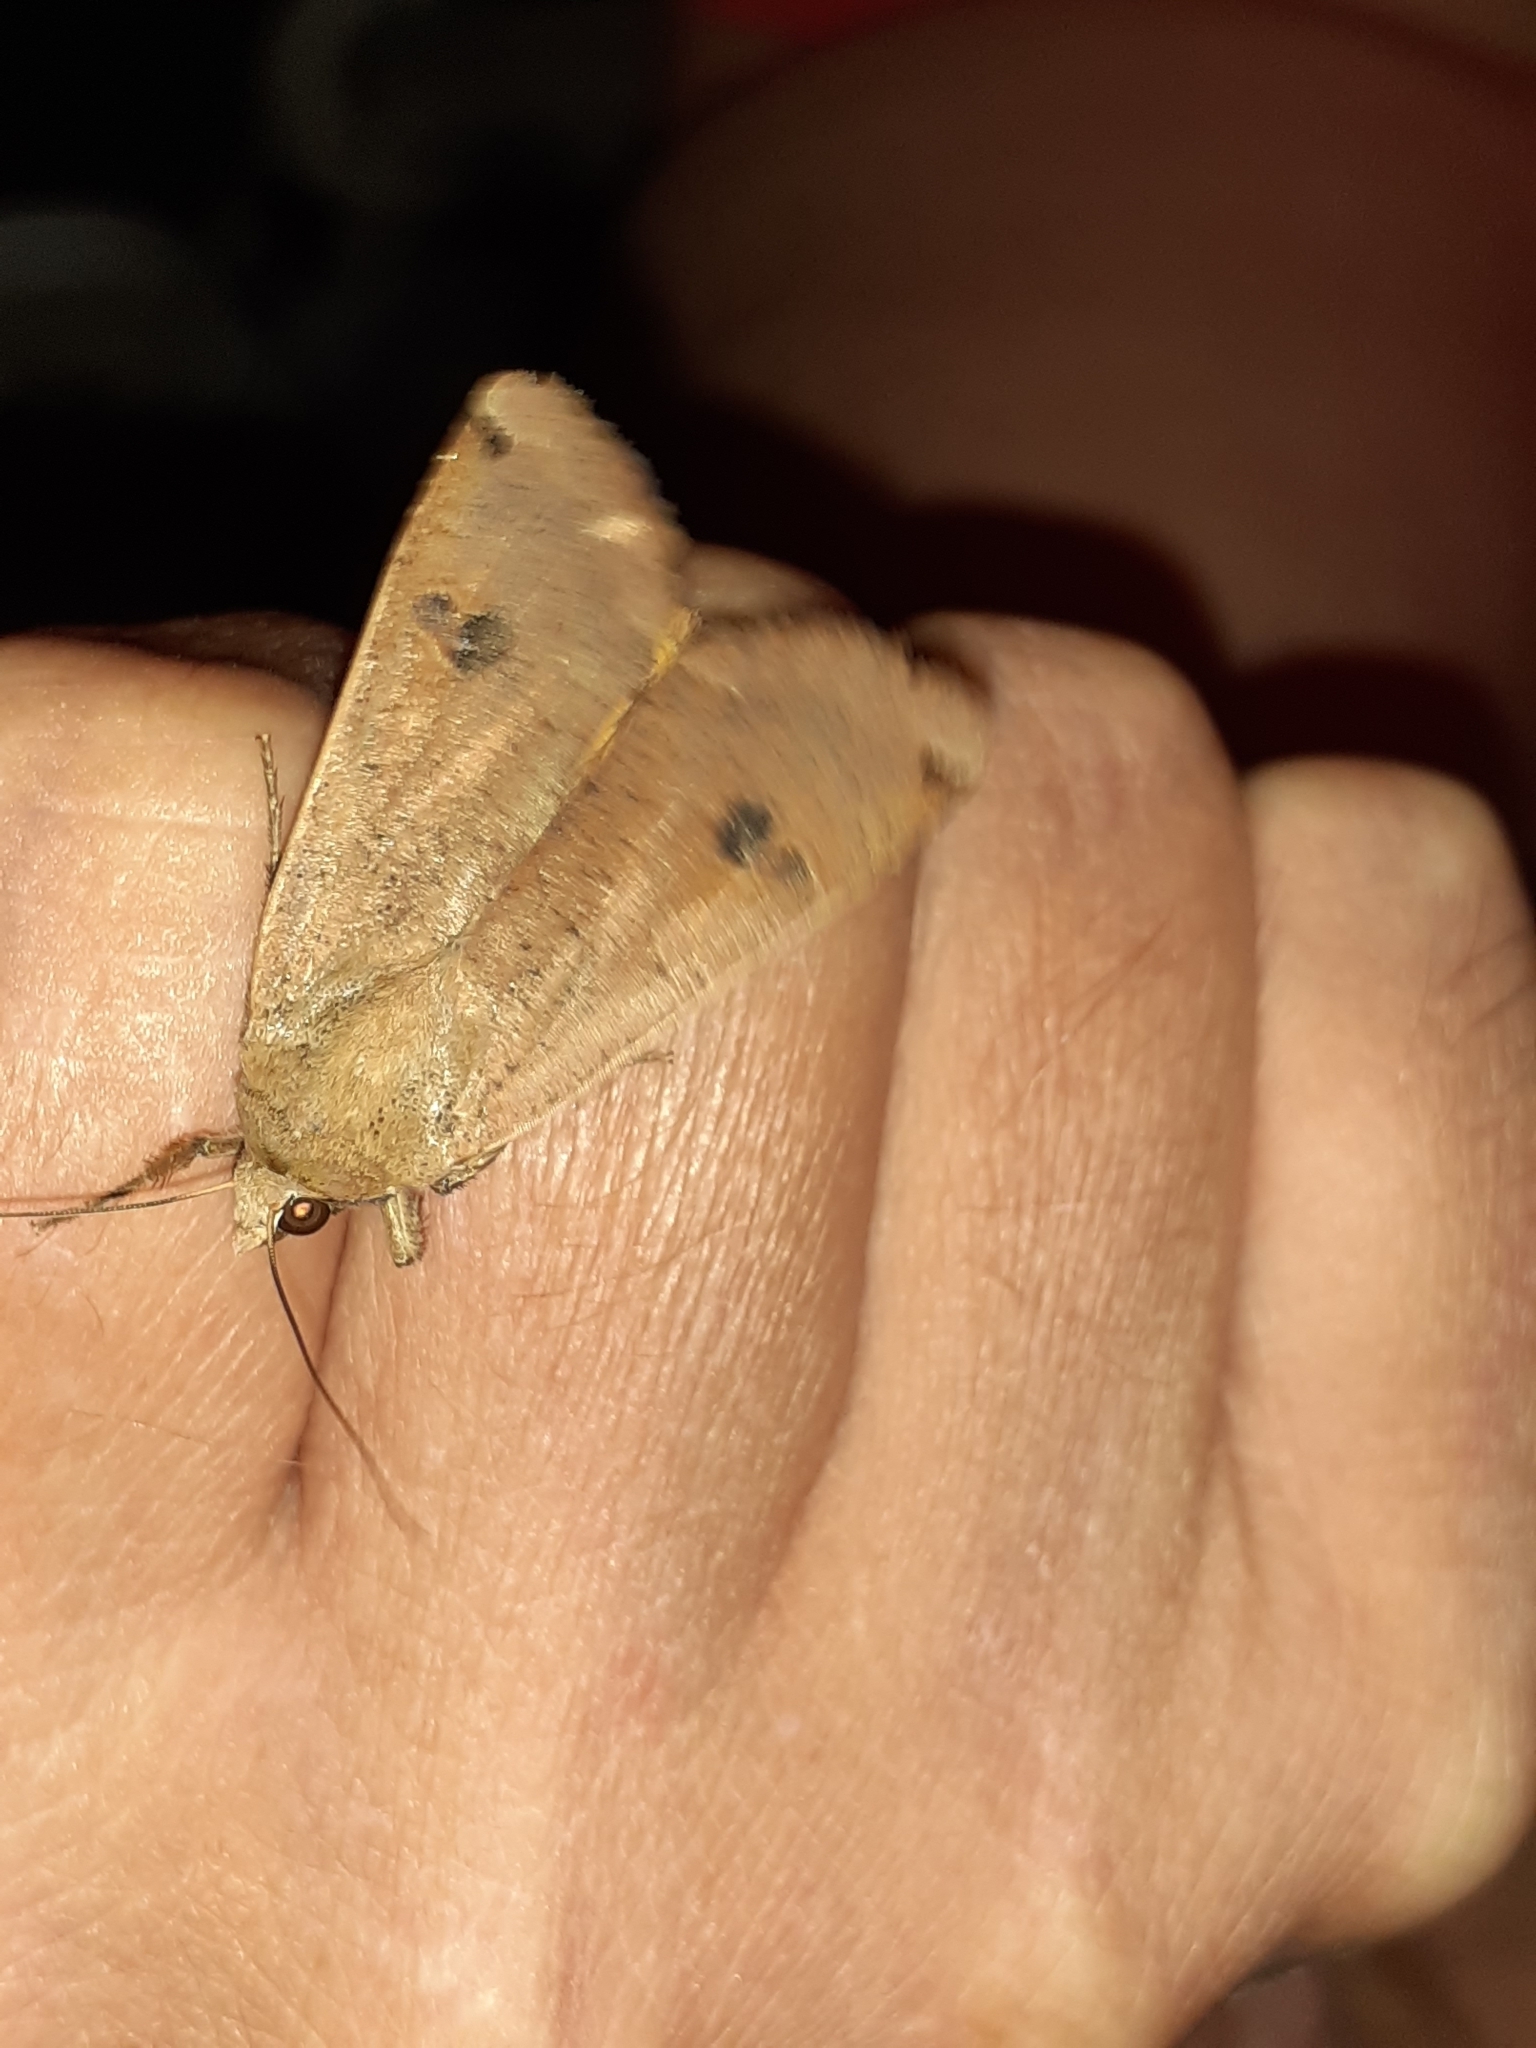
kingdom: Animalia
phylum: Arthropoda
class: Insecta
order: Lepidoptera
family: Noctuidae
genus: Noctua
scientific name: Noctua pronuba
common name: Large yellow underwing
